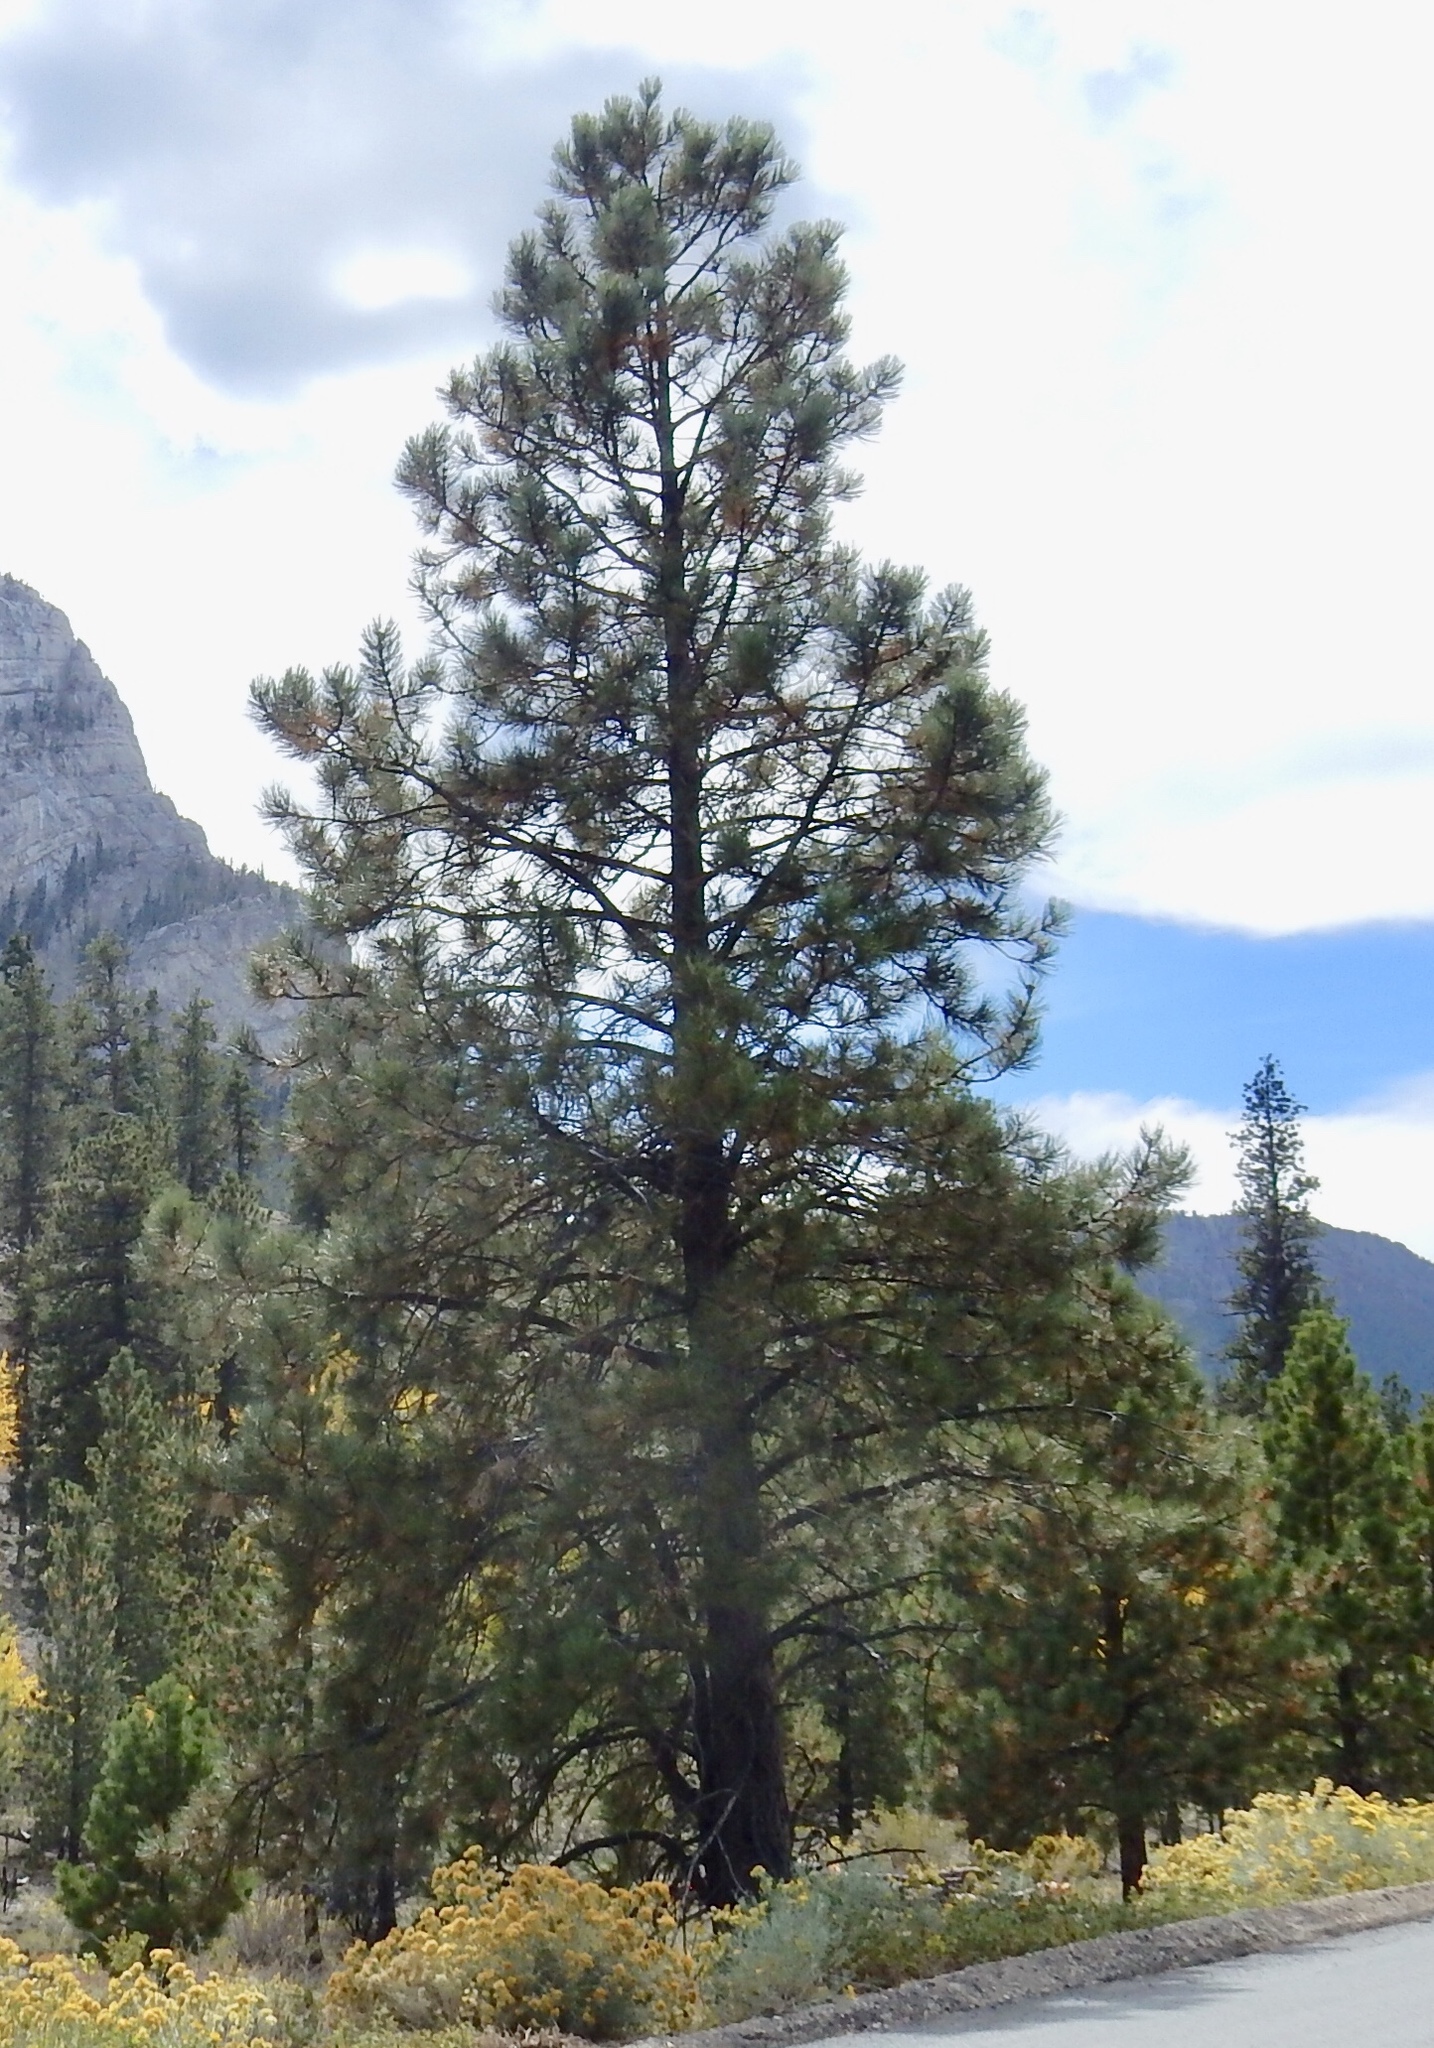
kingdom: Plantae
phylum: Tracheophyta
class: Pinopsida
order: Pinales
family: Pinaceae
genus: Pinus
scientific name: Pinus ponderosa
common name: Western yellow-pine
